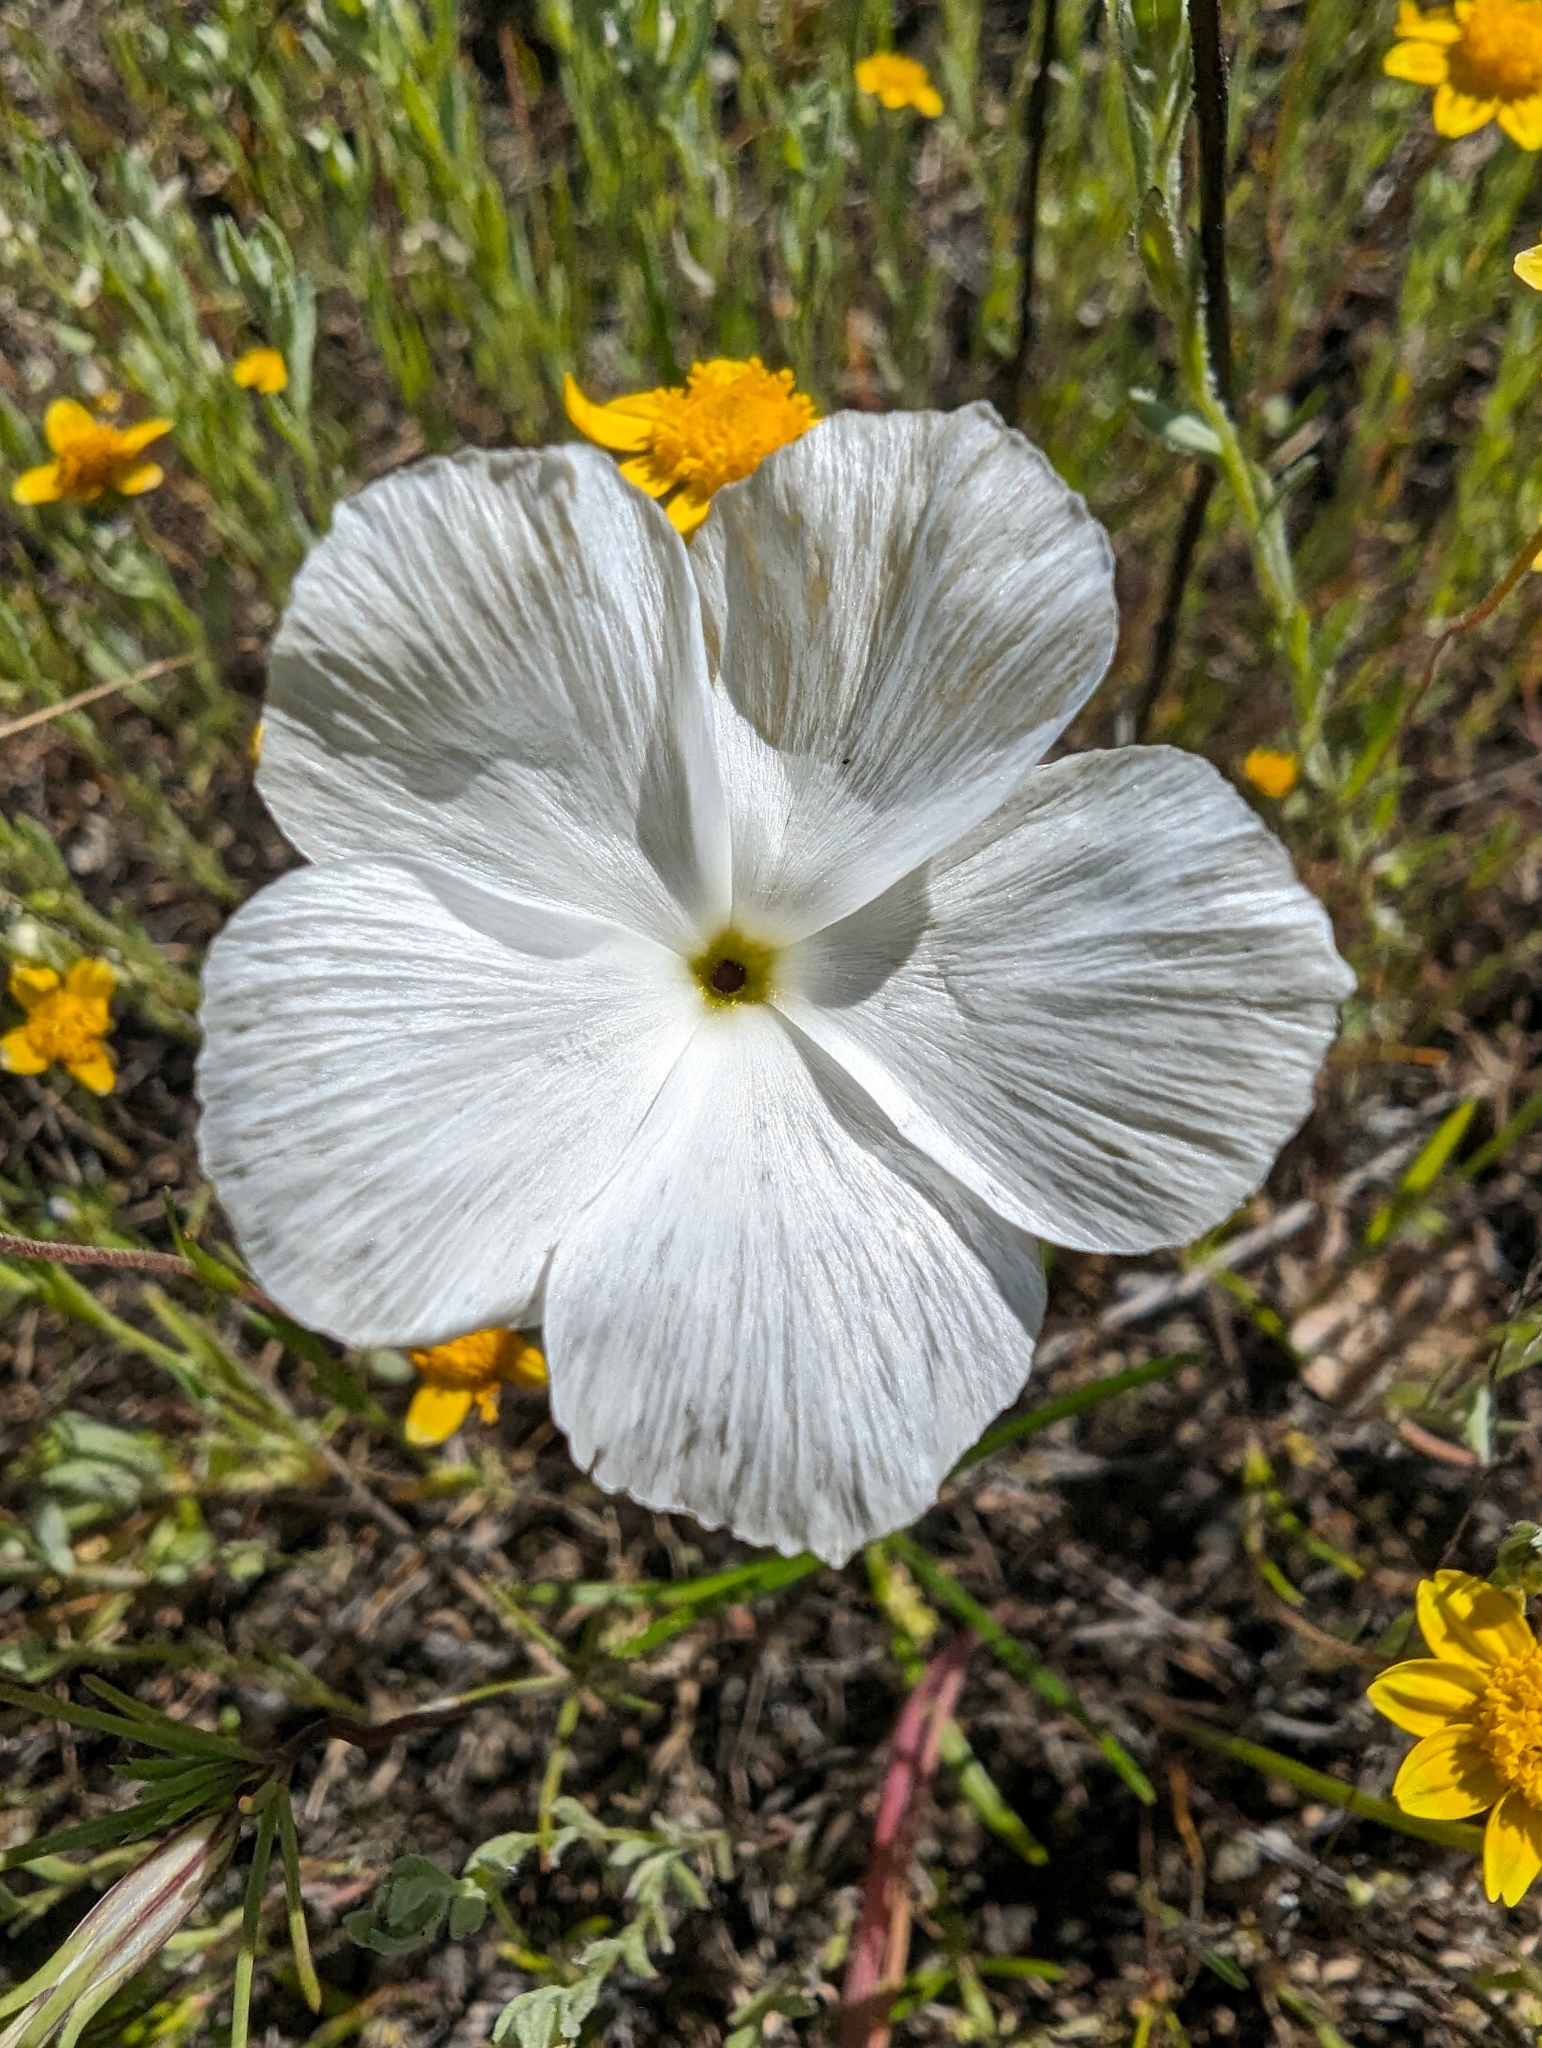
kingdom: Plantae
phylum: Tracheophyta
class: Magnoliopsida
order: Ericales
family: Polemoniaceae
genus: Linanthus
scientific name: Linanthus dichotomus
